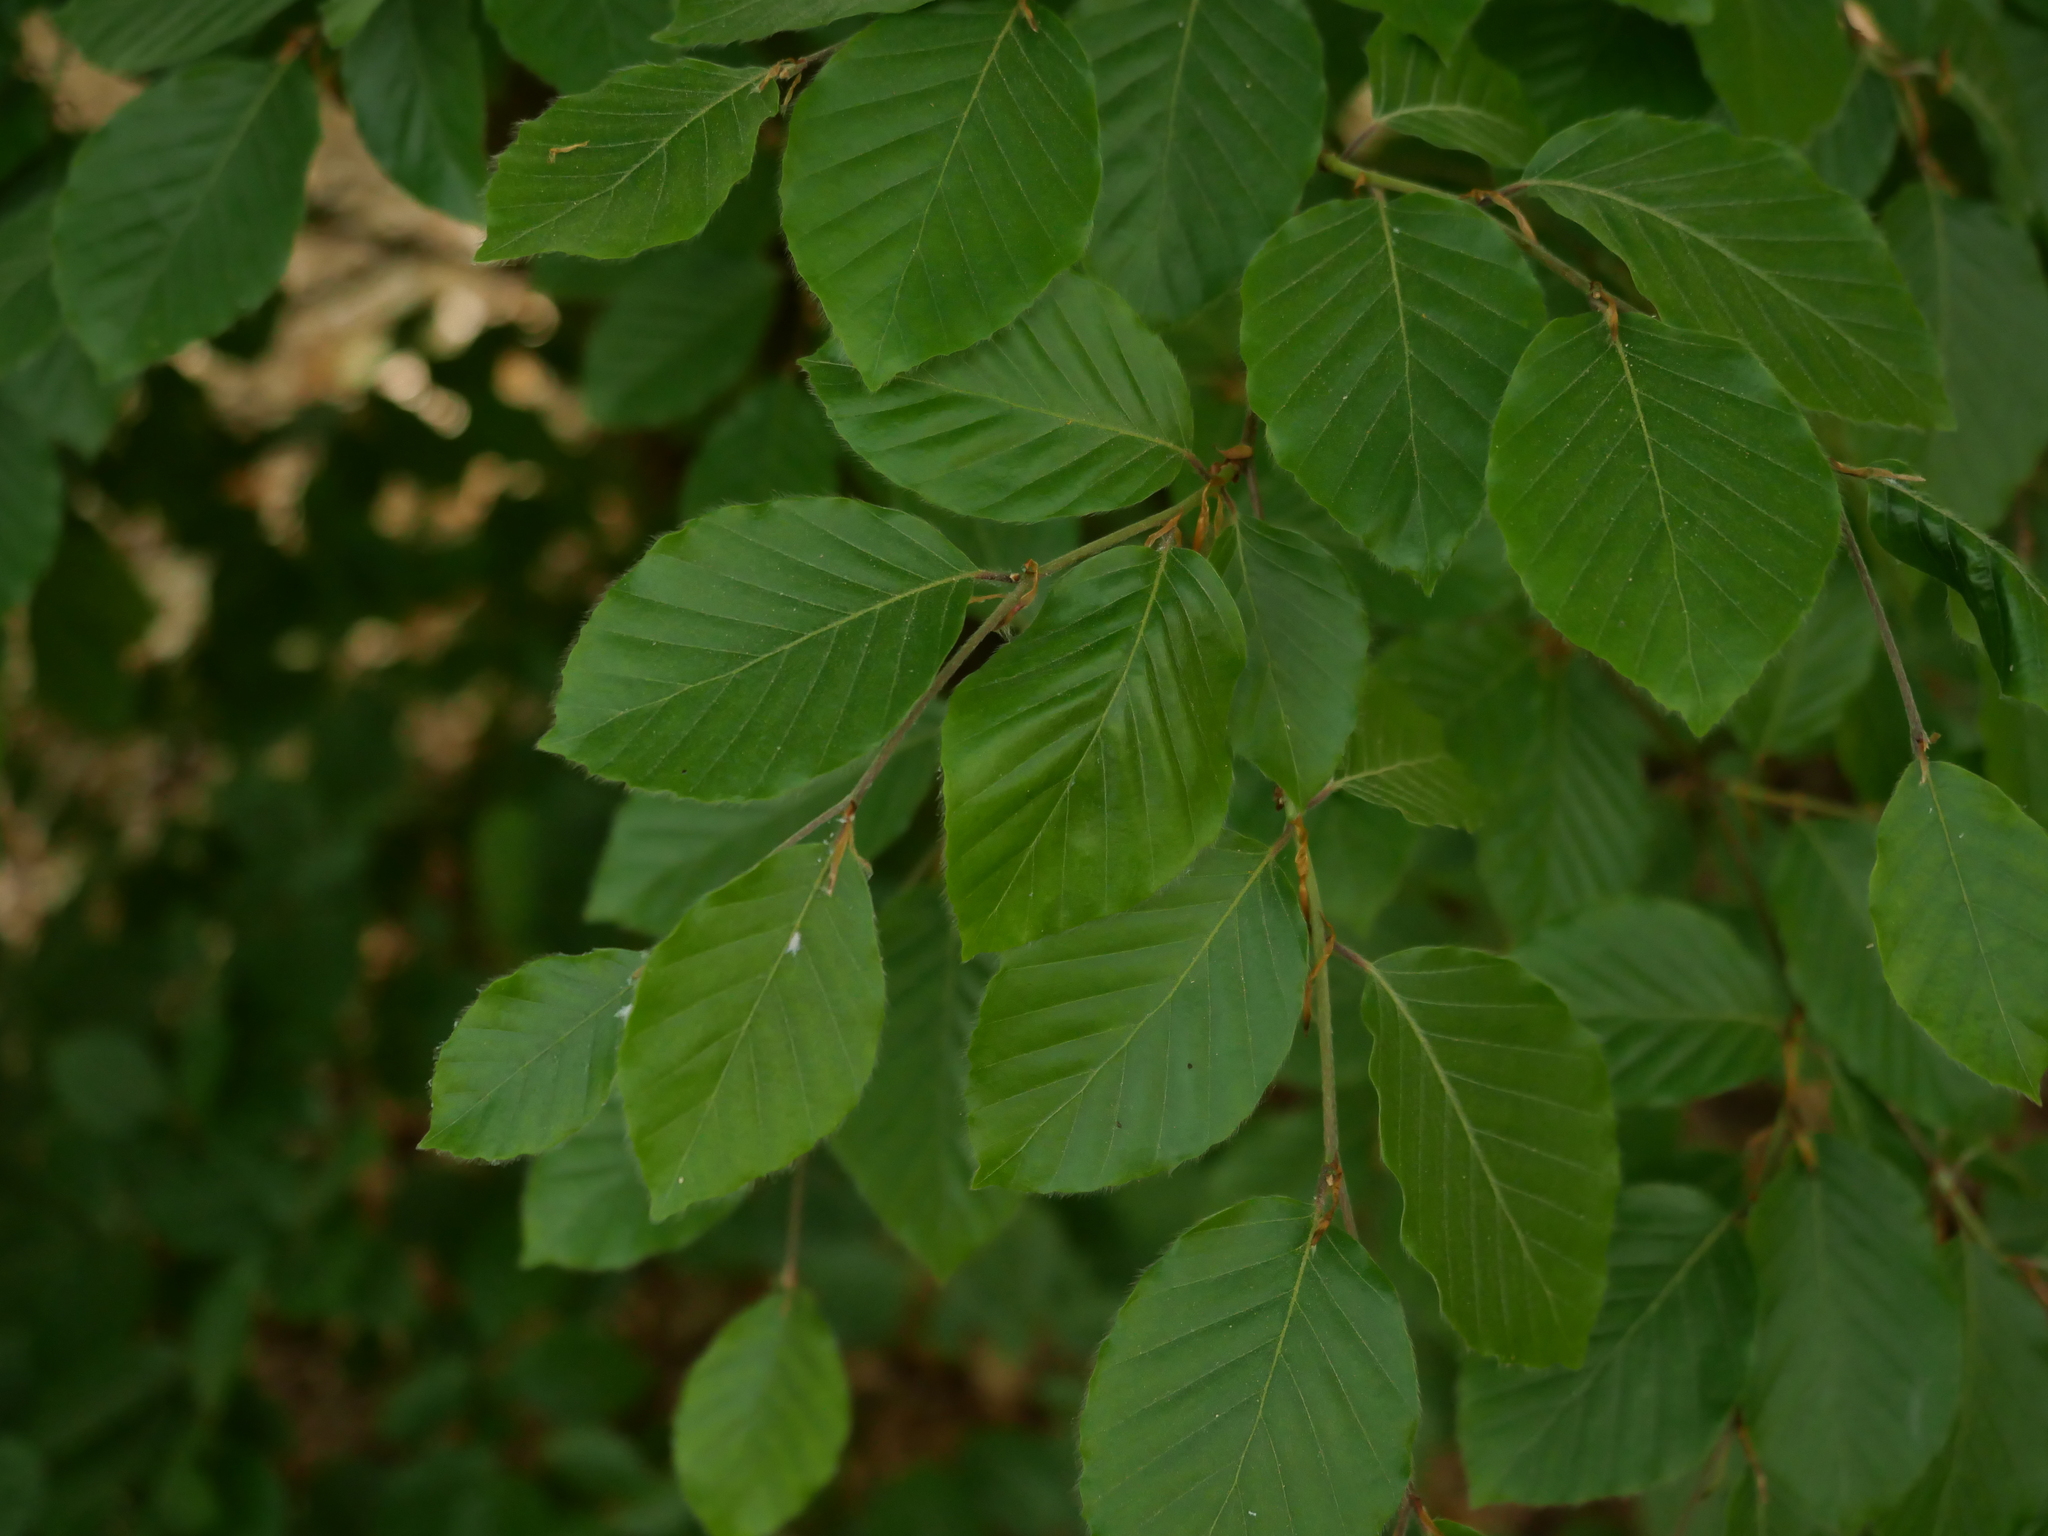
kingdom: Plantae
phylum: Tracheophyta
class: Magnoliopsida
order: Fagales
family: Fagaceae
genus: Fagus
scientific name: Fagus sylvatica
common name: Beech
